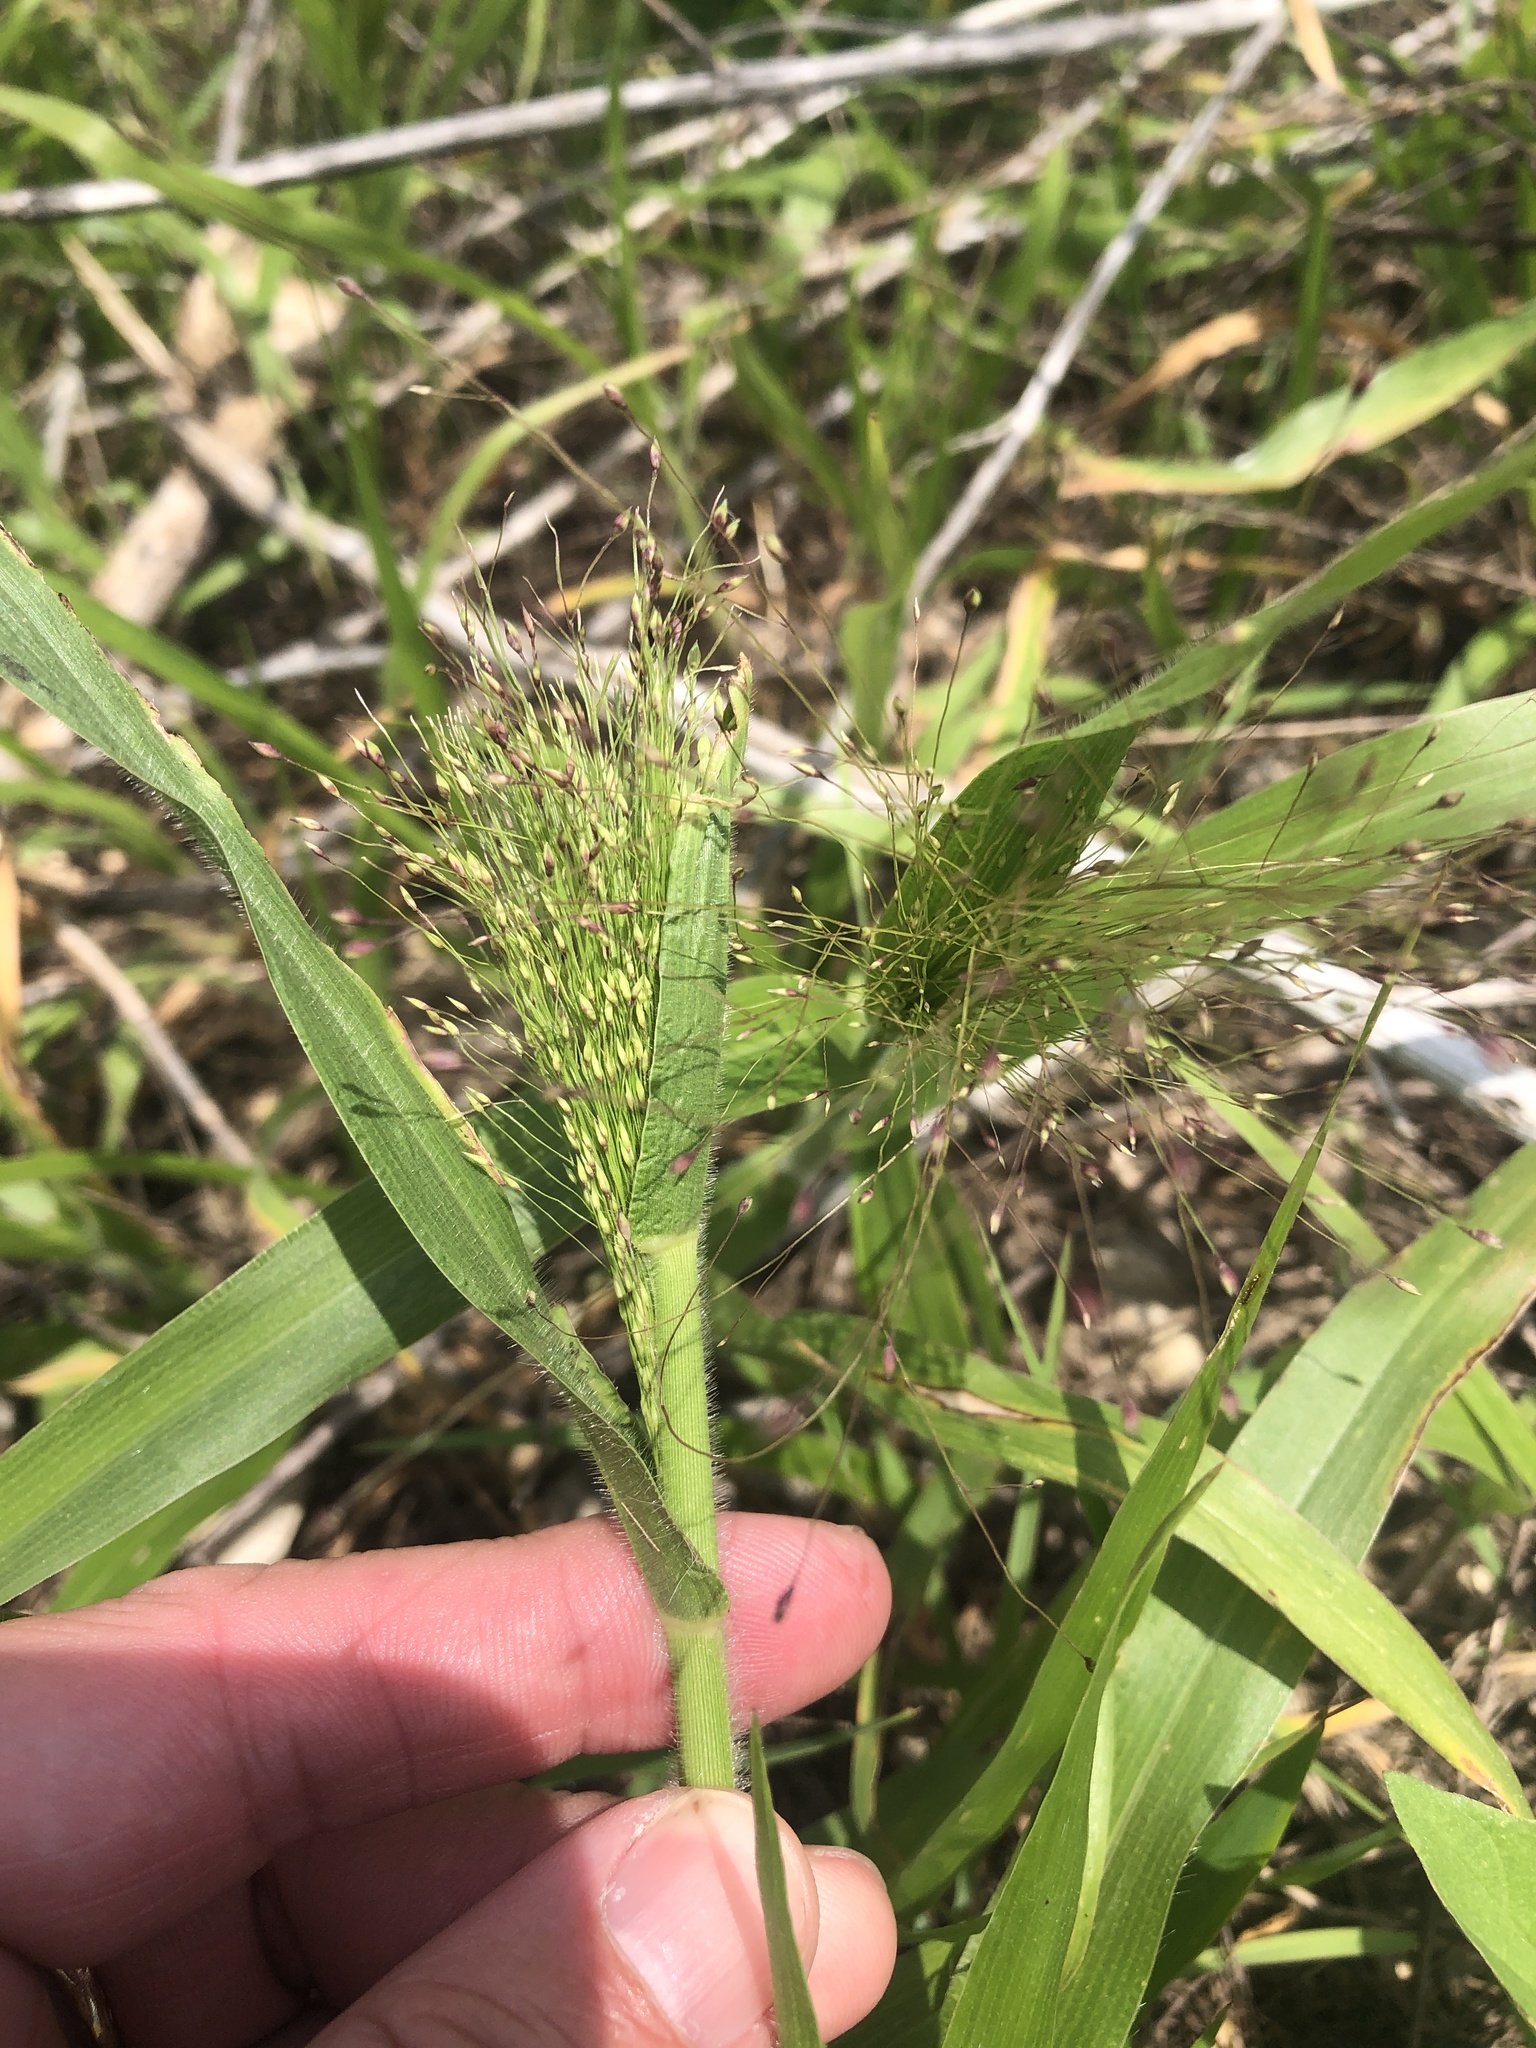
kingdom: Plantae
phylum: Tracheophyta
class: Liliopsida
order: Poales
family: Poaceae
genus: Panicum
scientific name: Panicum capillare
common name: Witch-grass
